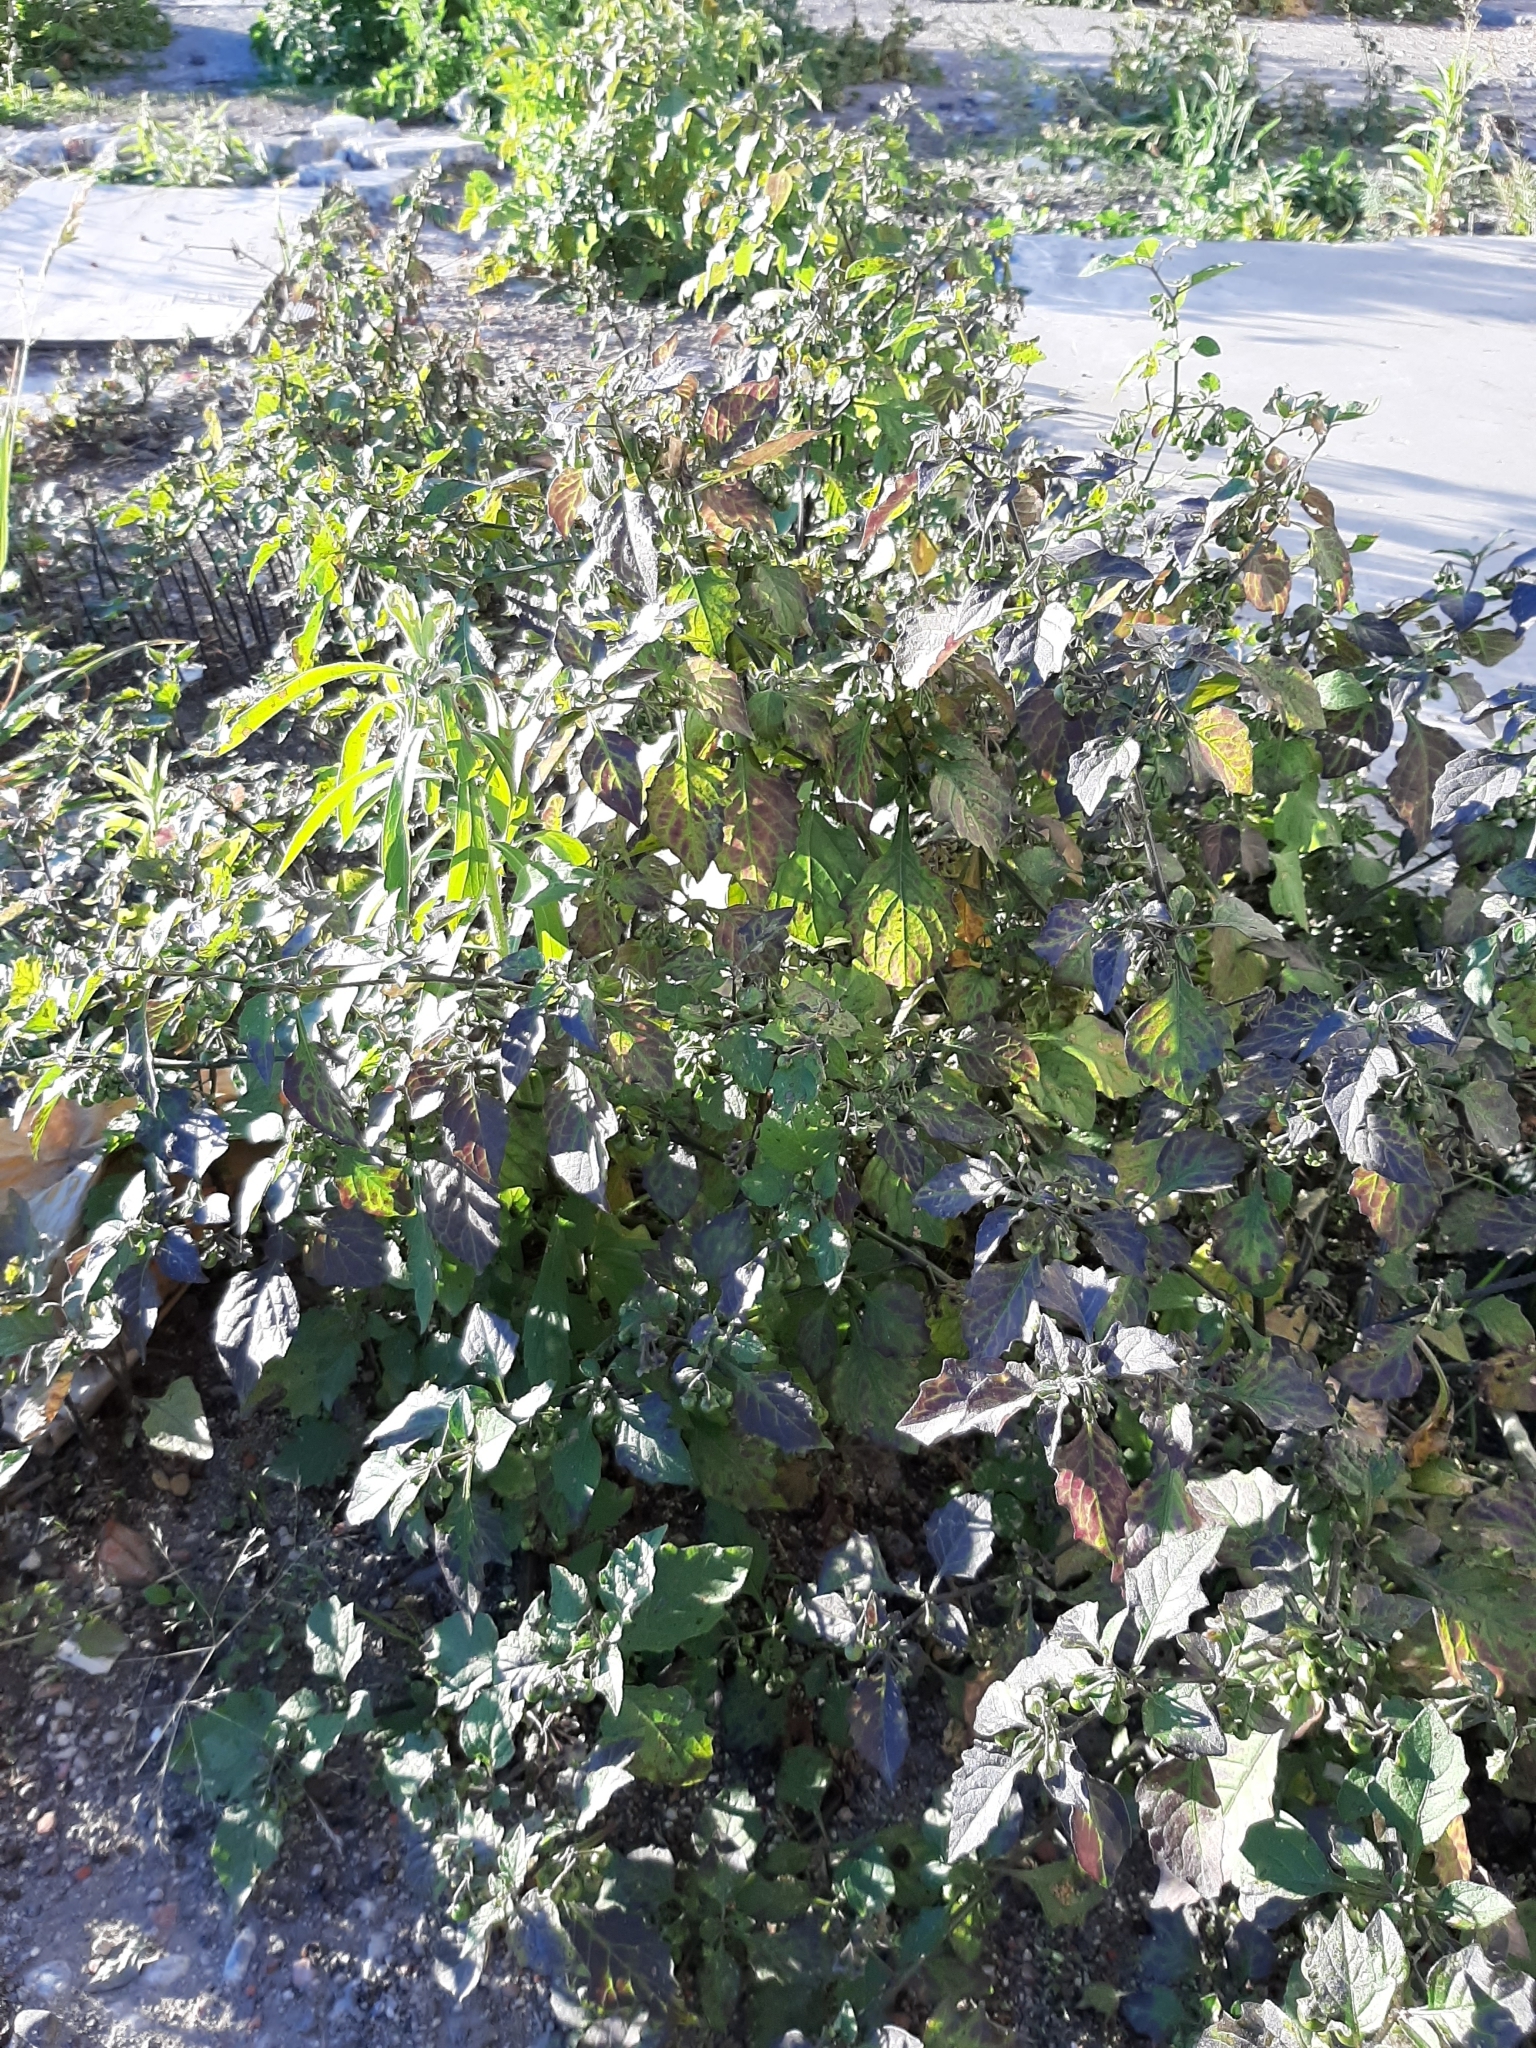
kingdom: Plantae
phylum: Tracheophyta
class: Magnoliopsida
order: Solanales
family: Solanaceae
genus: Solanum
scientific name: Solanum nigrum
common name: Black nightshade
